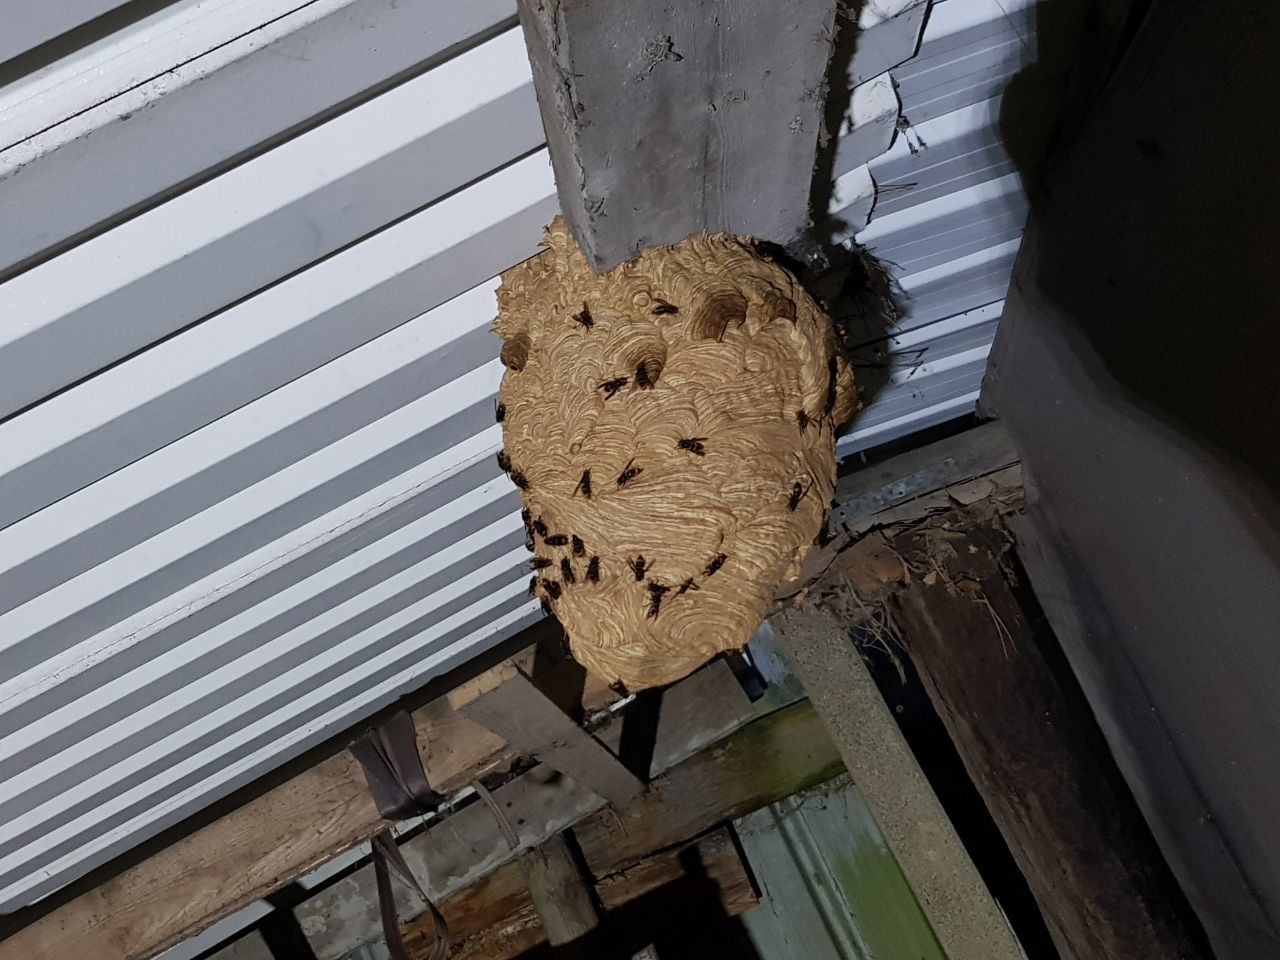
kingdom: Animalia
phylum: Arthropoda
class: Insecta
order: Hymenoptera
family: Vespidae
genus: Vespa
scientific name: Vespa velutina
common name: Asian hornet
